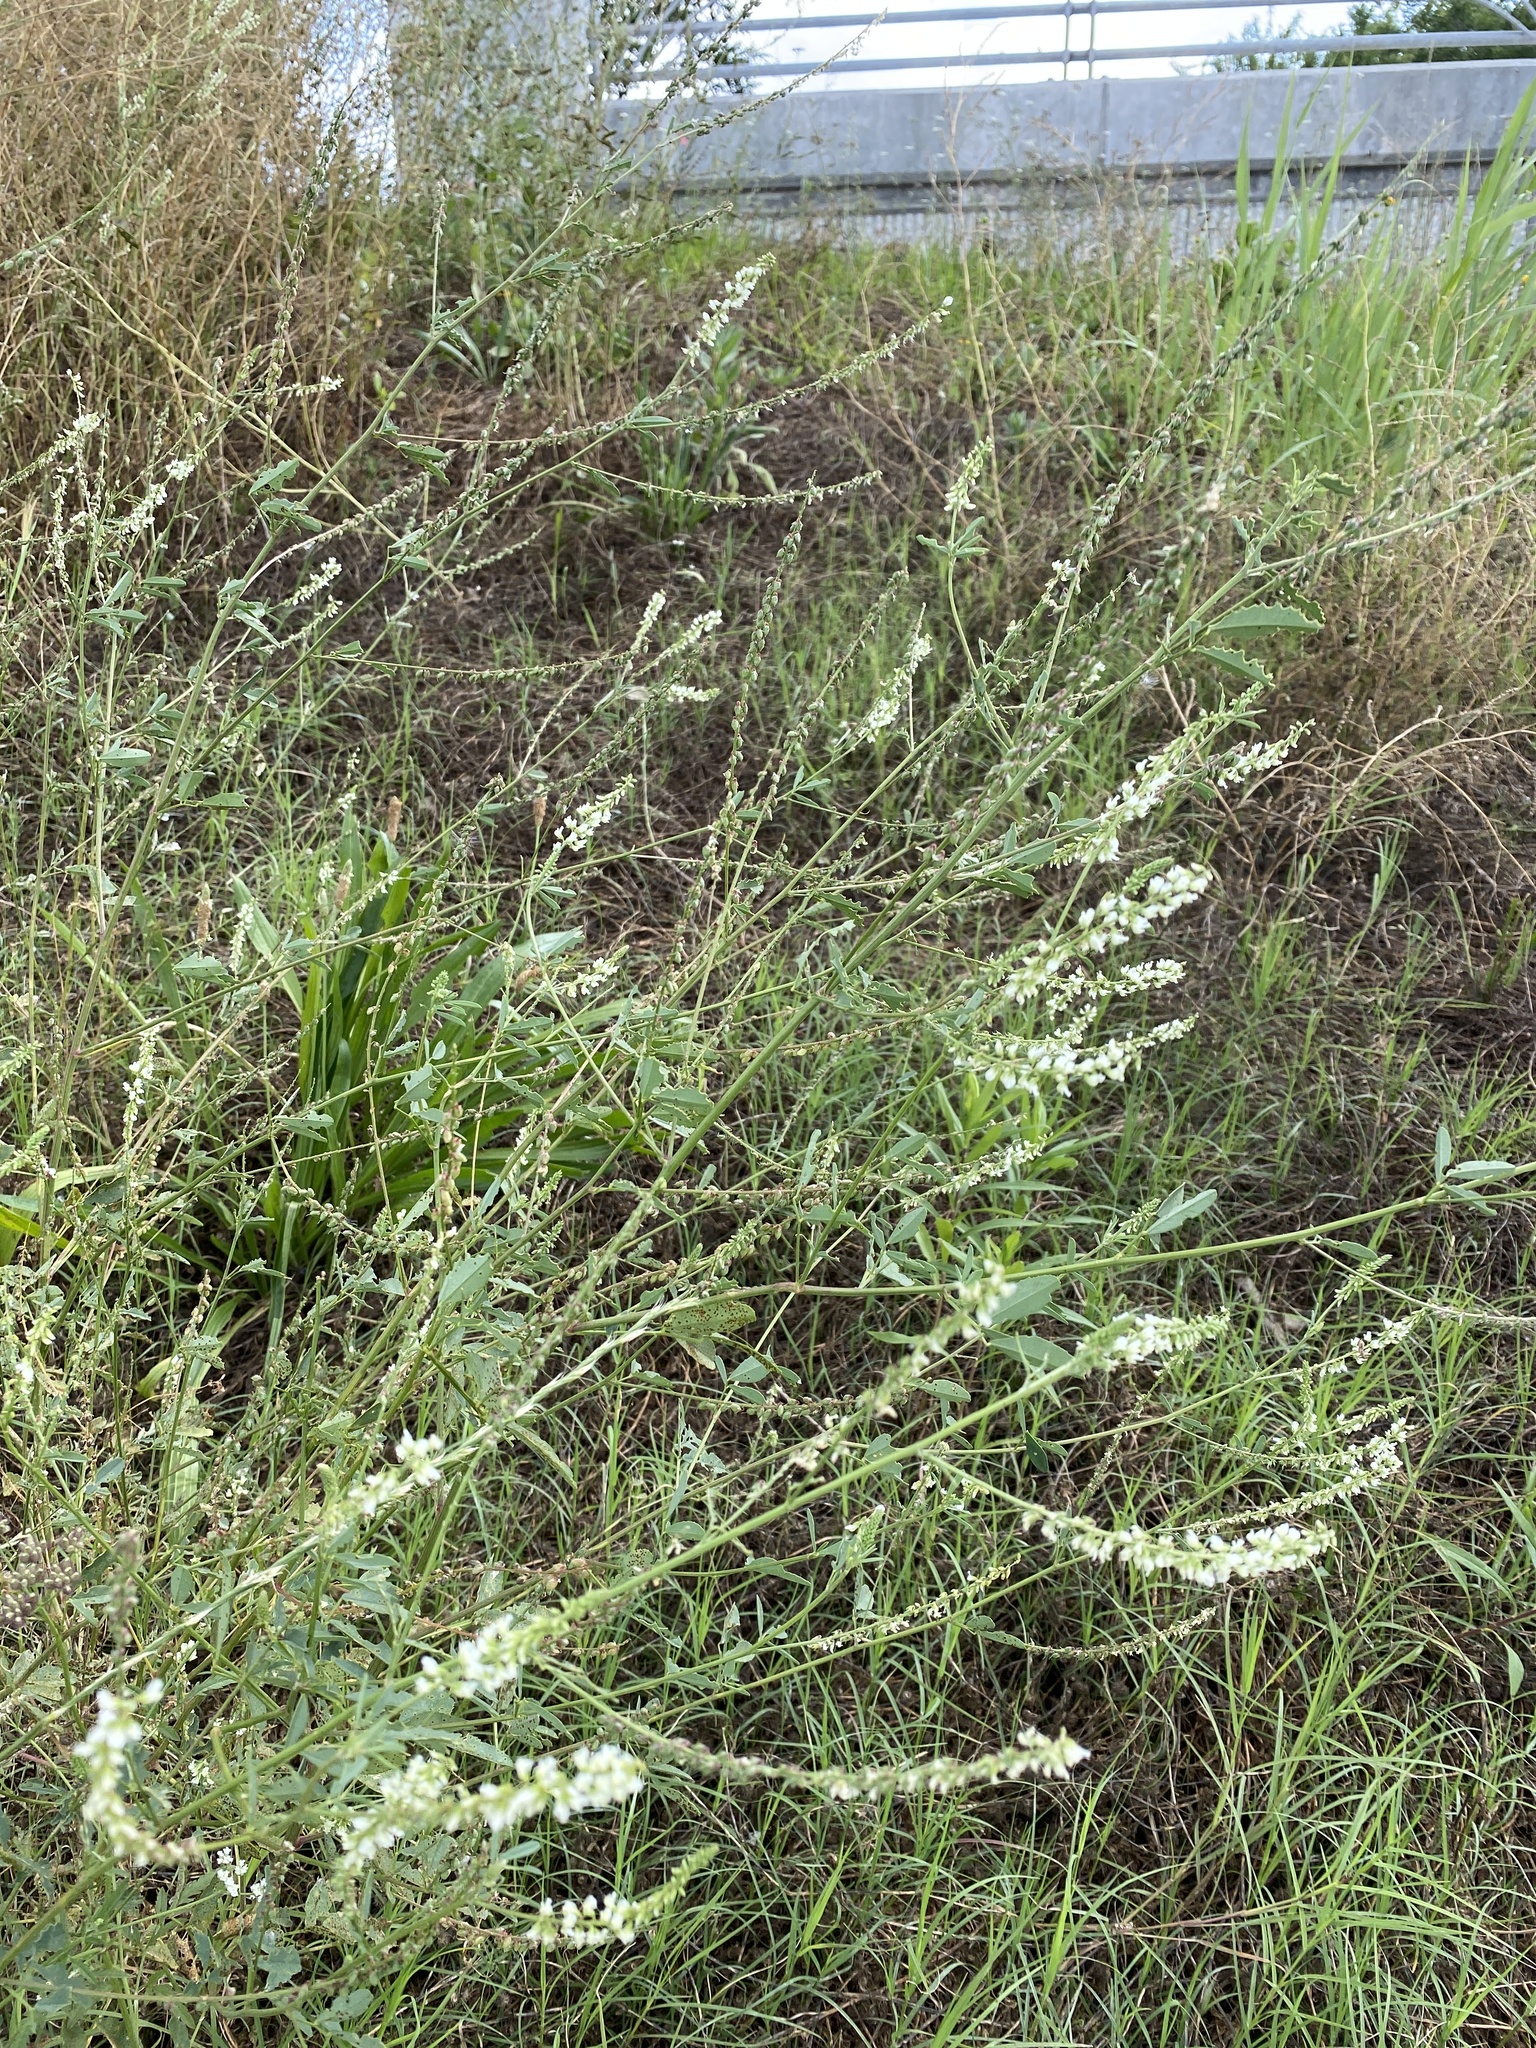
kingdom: Plantae
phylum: Tracheophyta
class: Magnoliopsida
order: Fabales
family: Fabaceae
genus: Melilotus
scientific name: Melilotus albus
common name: White melilot
